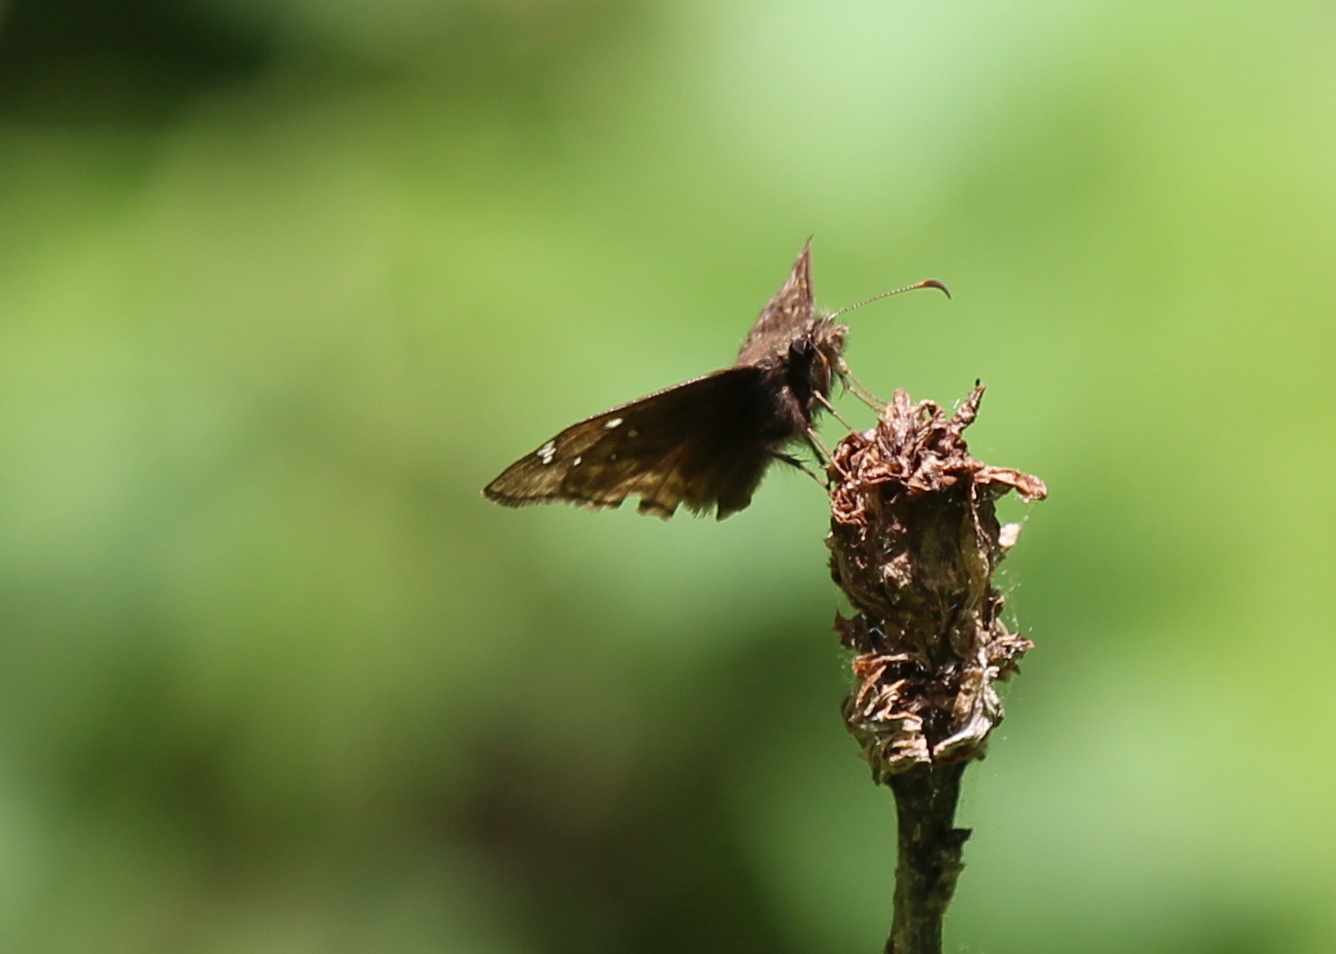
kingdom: Animalia
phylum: Arthropoda
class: Insecta
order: Lepidoptera
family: Hesperiidae
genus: Erynnis
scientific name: Erynnis juvenalis
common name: Juvenal's duskywing
